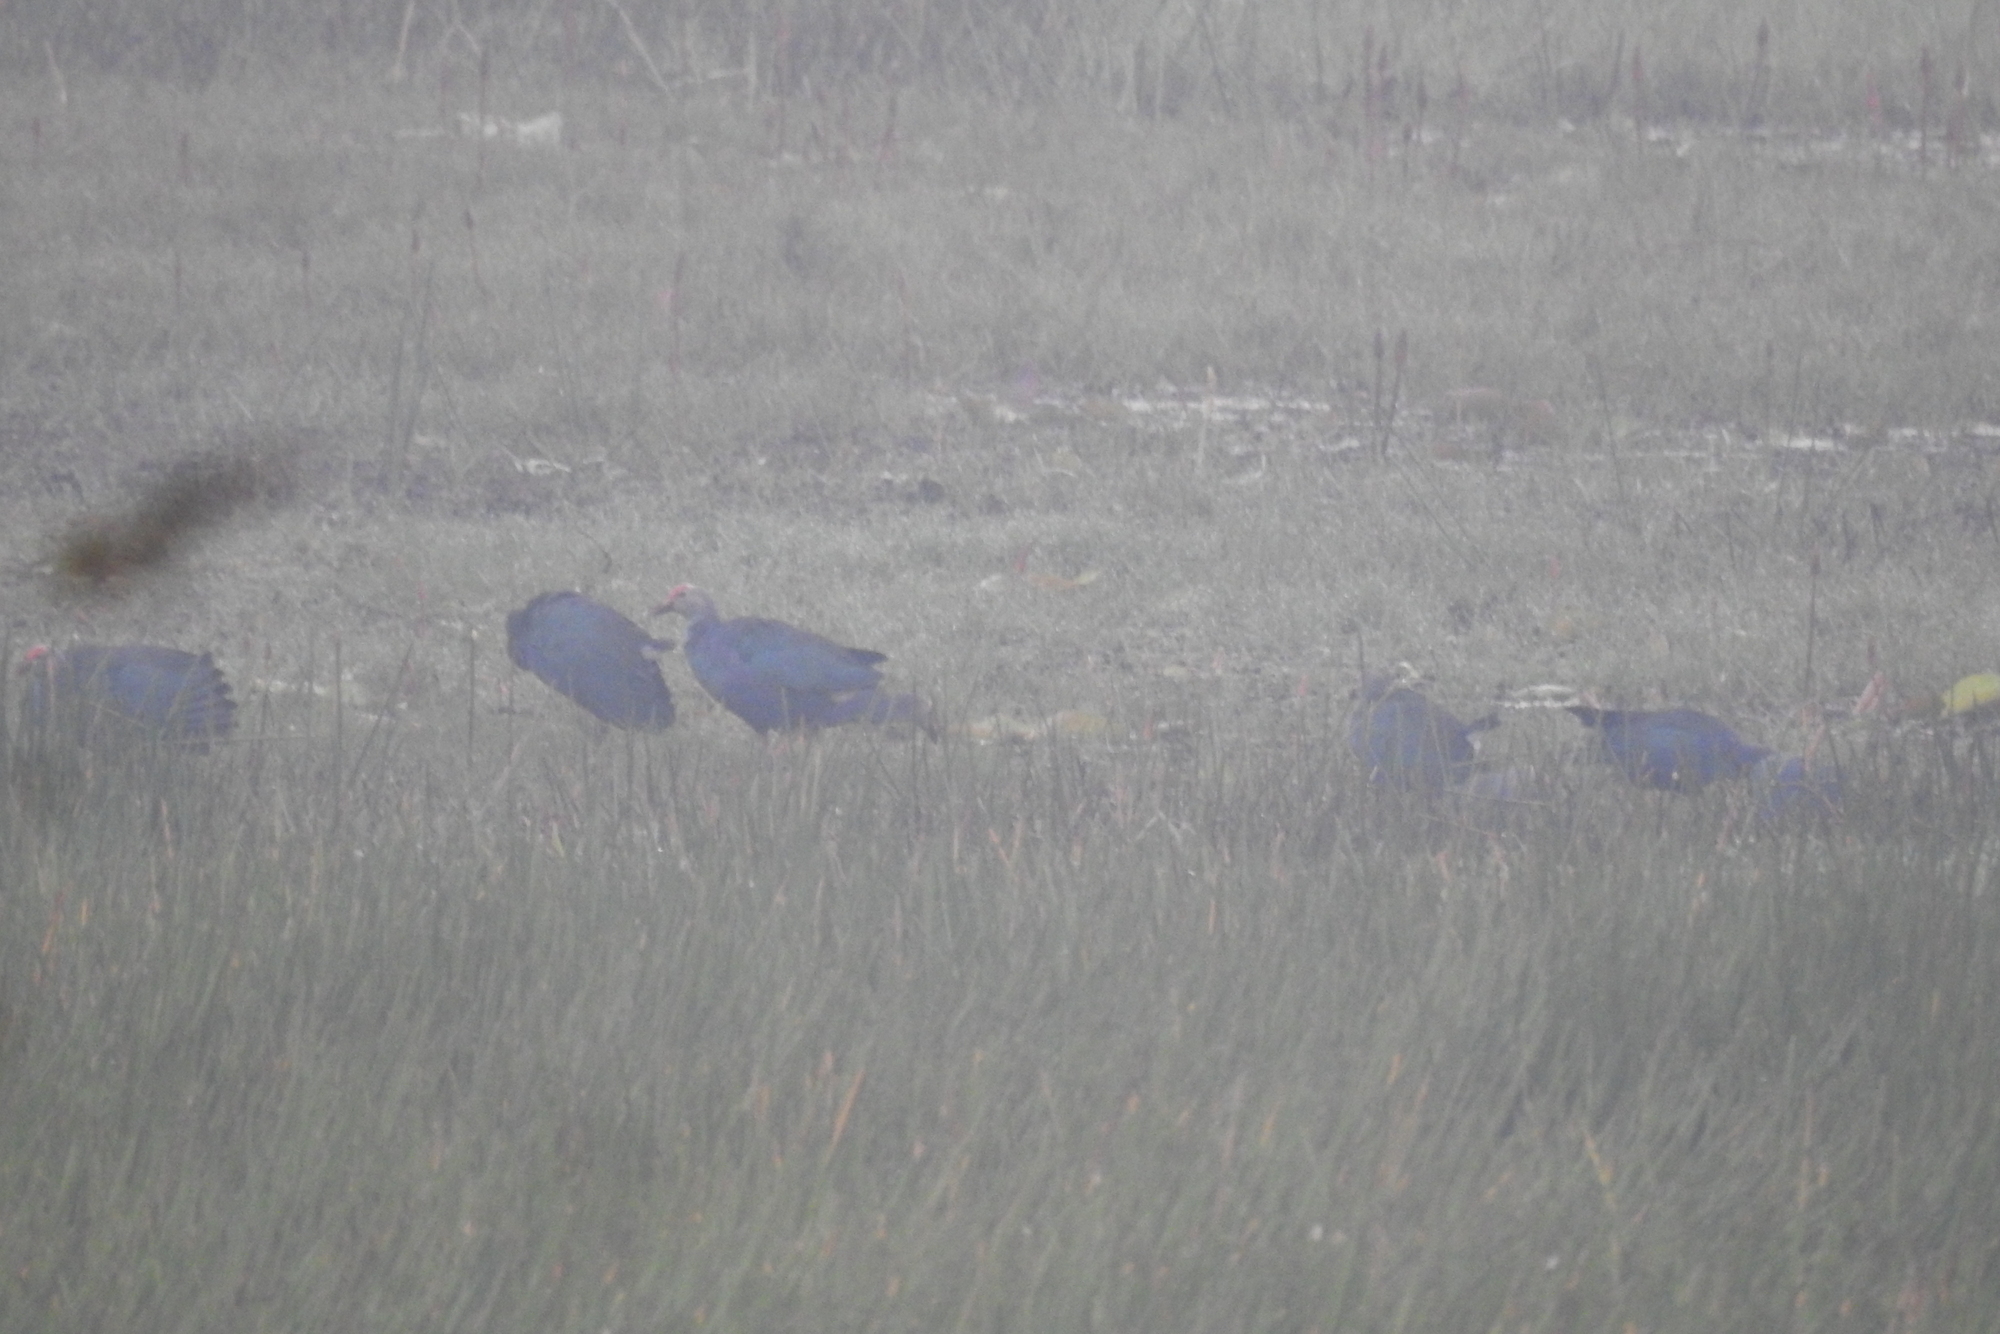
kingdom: Animalia
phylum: Chordata
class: Aves
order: Gruiformes
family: Rallidae
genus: Porphyrio
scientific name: Porphyrio porphyrio
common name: Purple swamphen
